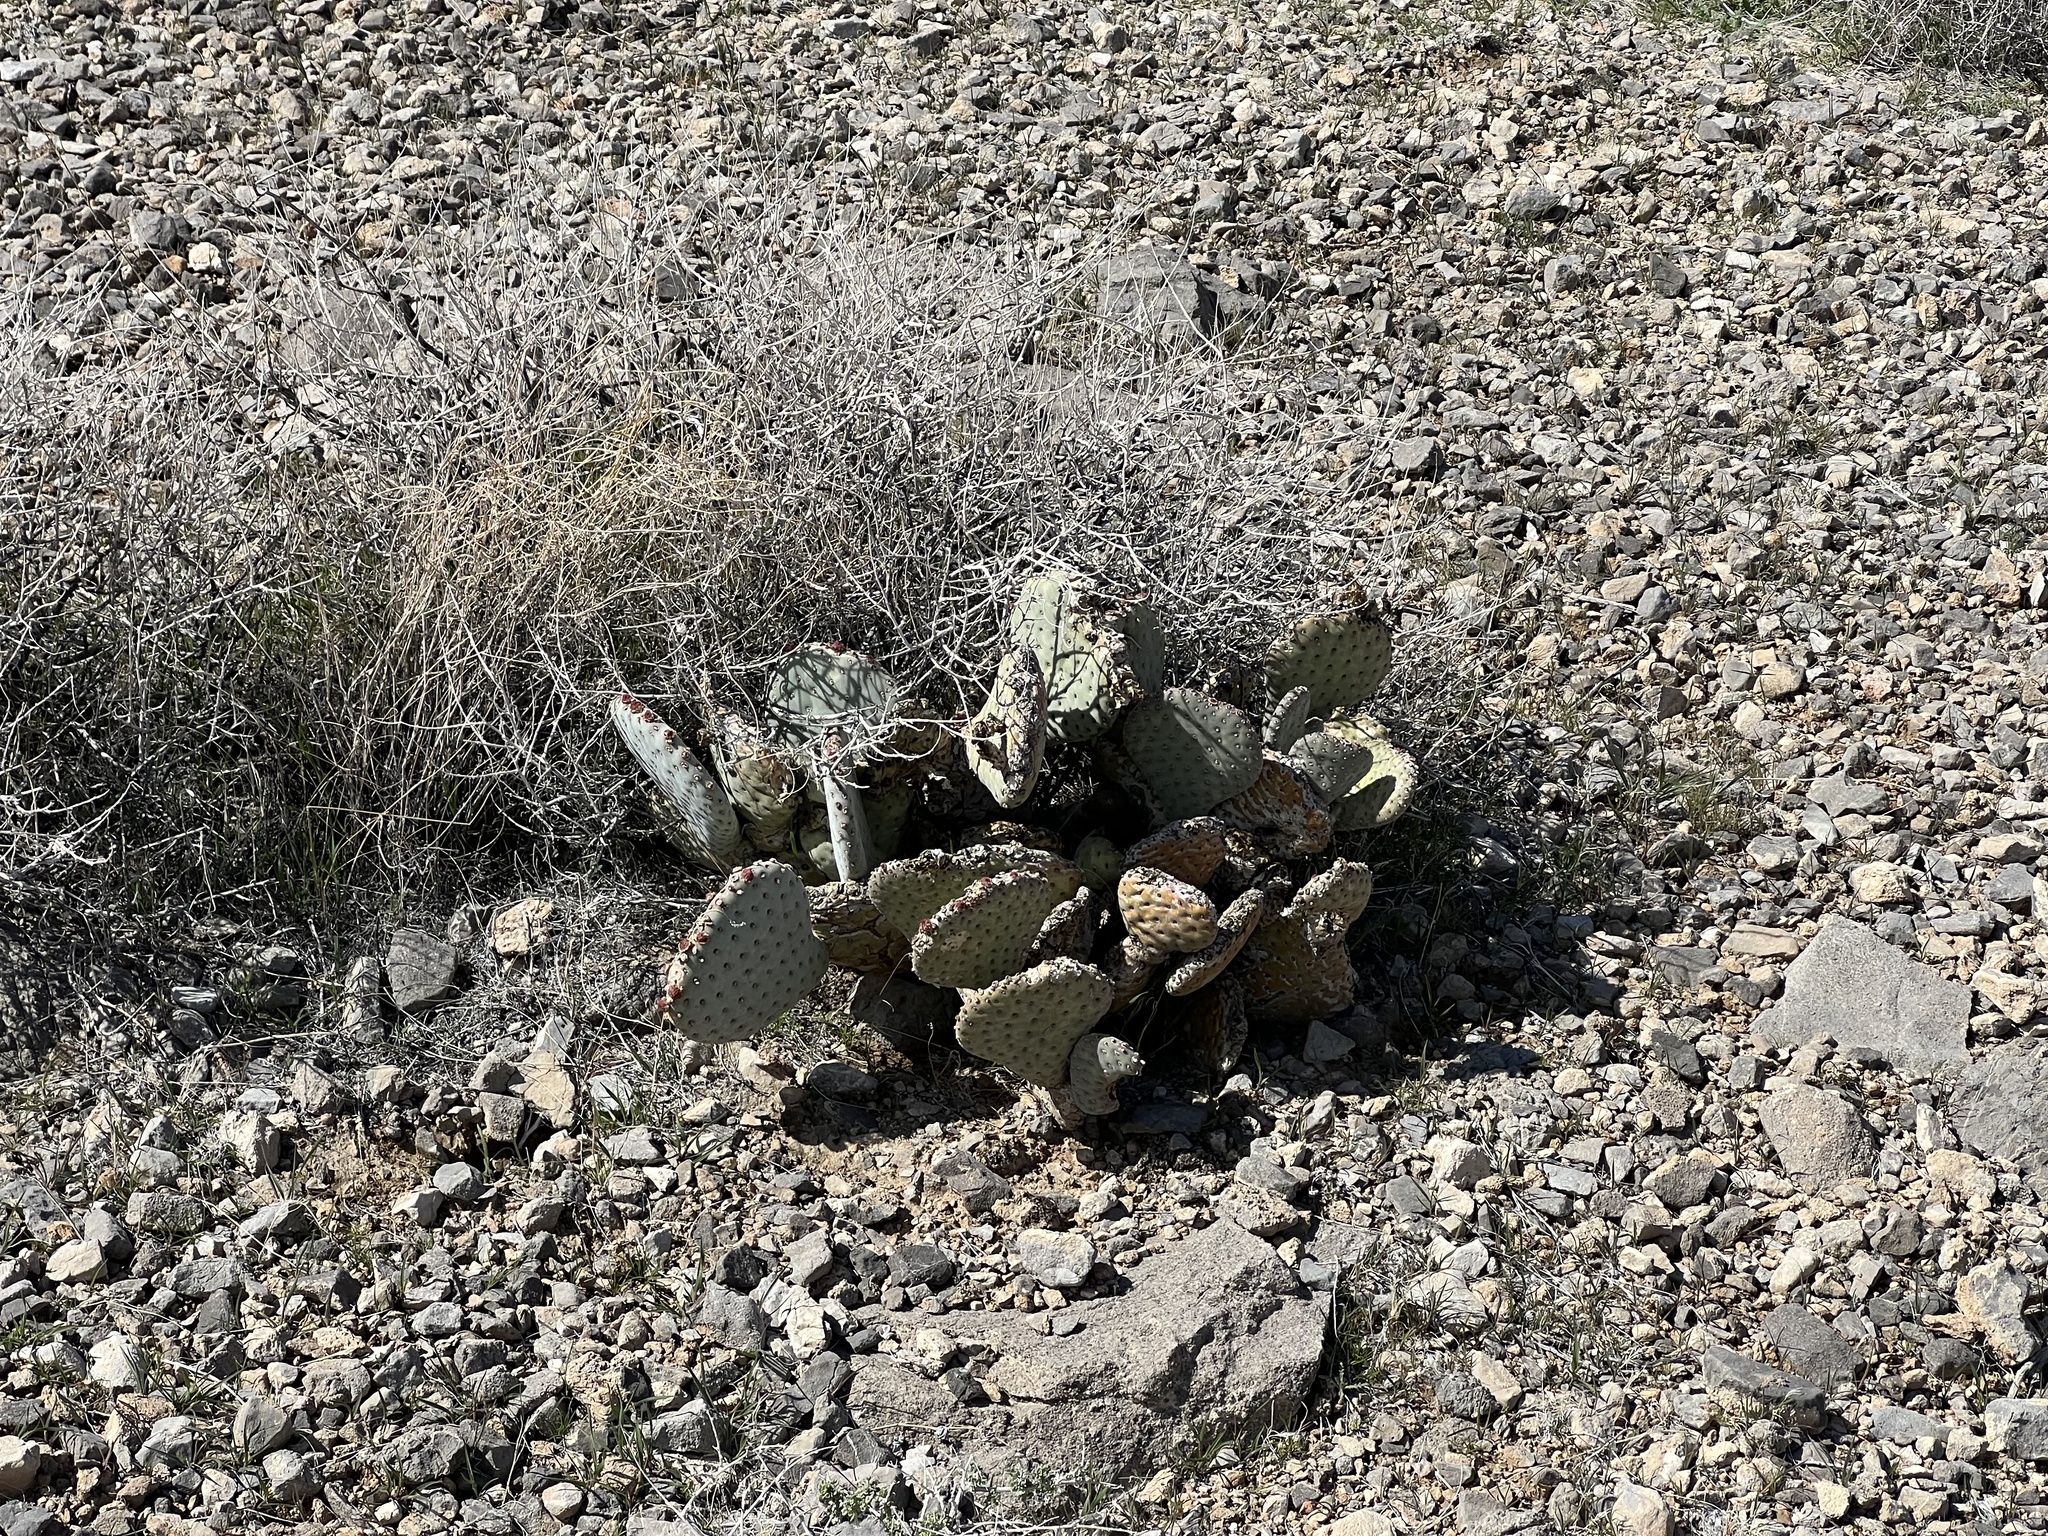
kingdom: Plantae
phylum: Tracheophyta
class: Magnoliopsida
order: Caryophyllales
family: Cactaceae
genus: Opuntia
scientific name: Opuntia basilaris
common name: Beavertail prickly-pear
